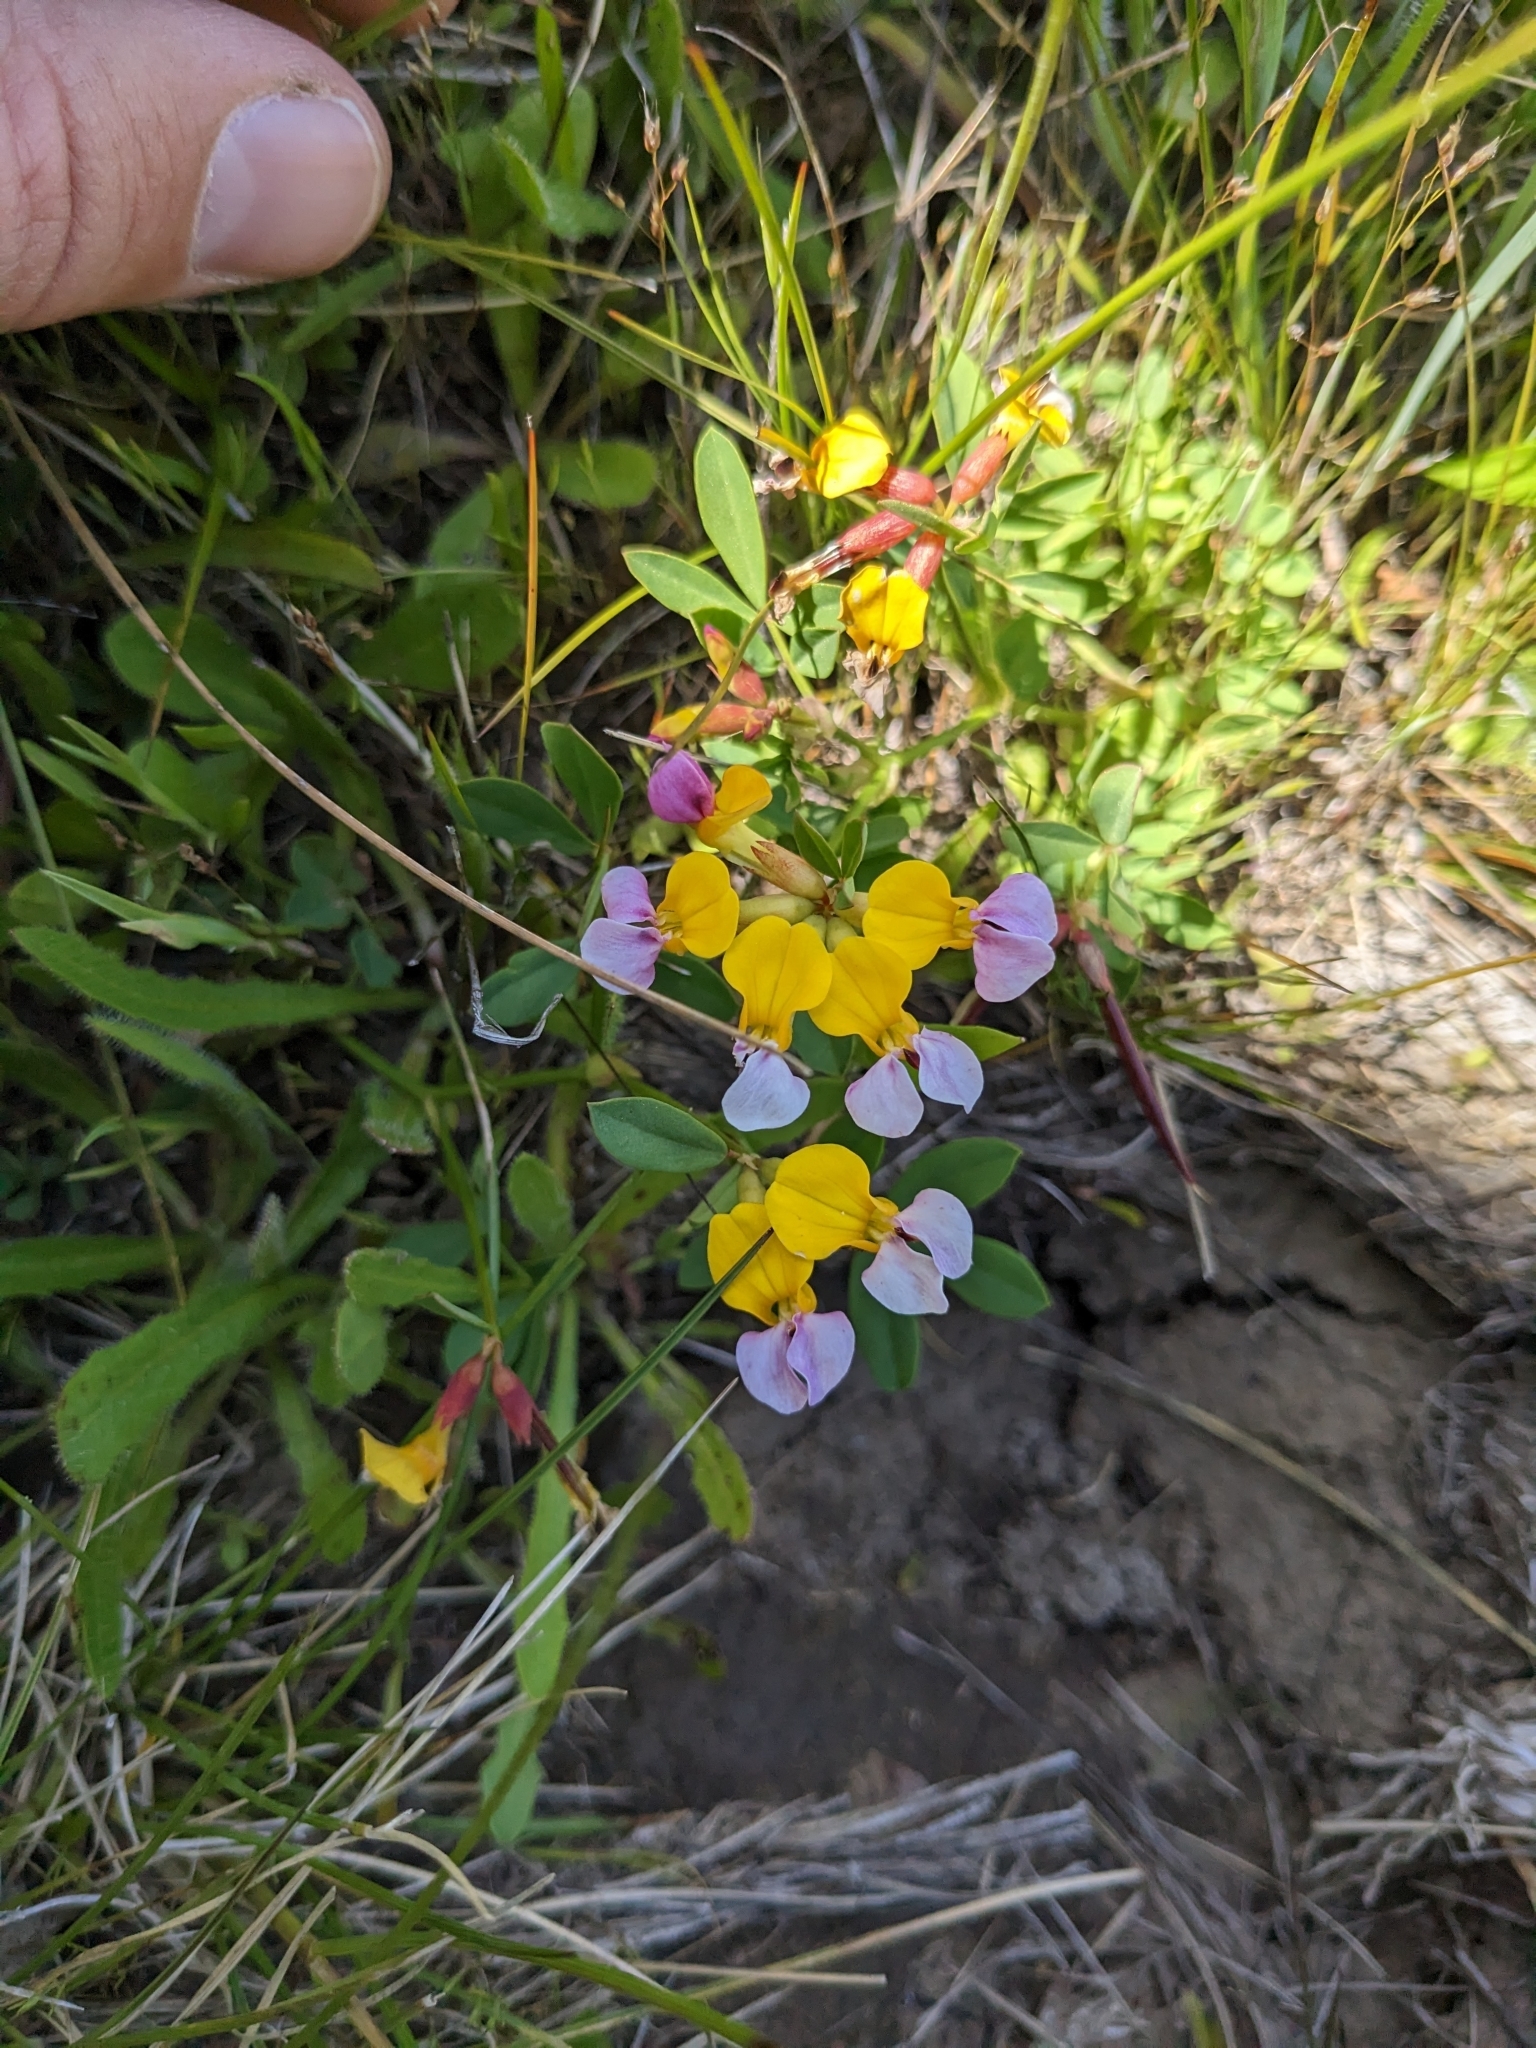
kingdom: Plantae
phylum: Tracheophyta
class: Magnoliopsida
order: Fabales
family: Fabaceae
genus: Hosackia
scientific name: Hosackia gracilis
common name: Seaside bird's-foot lotus
